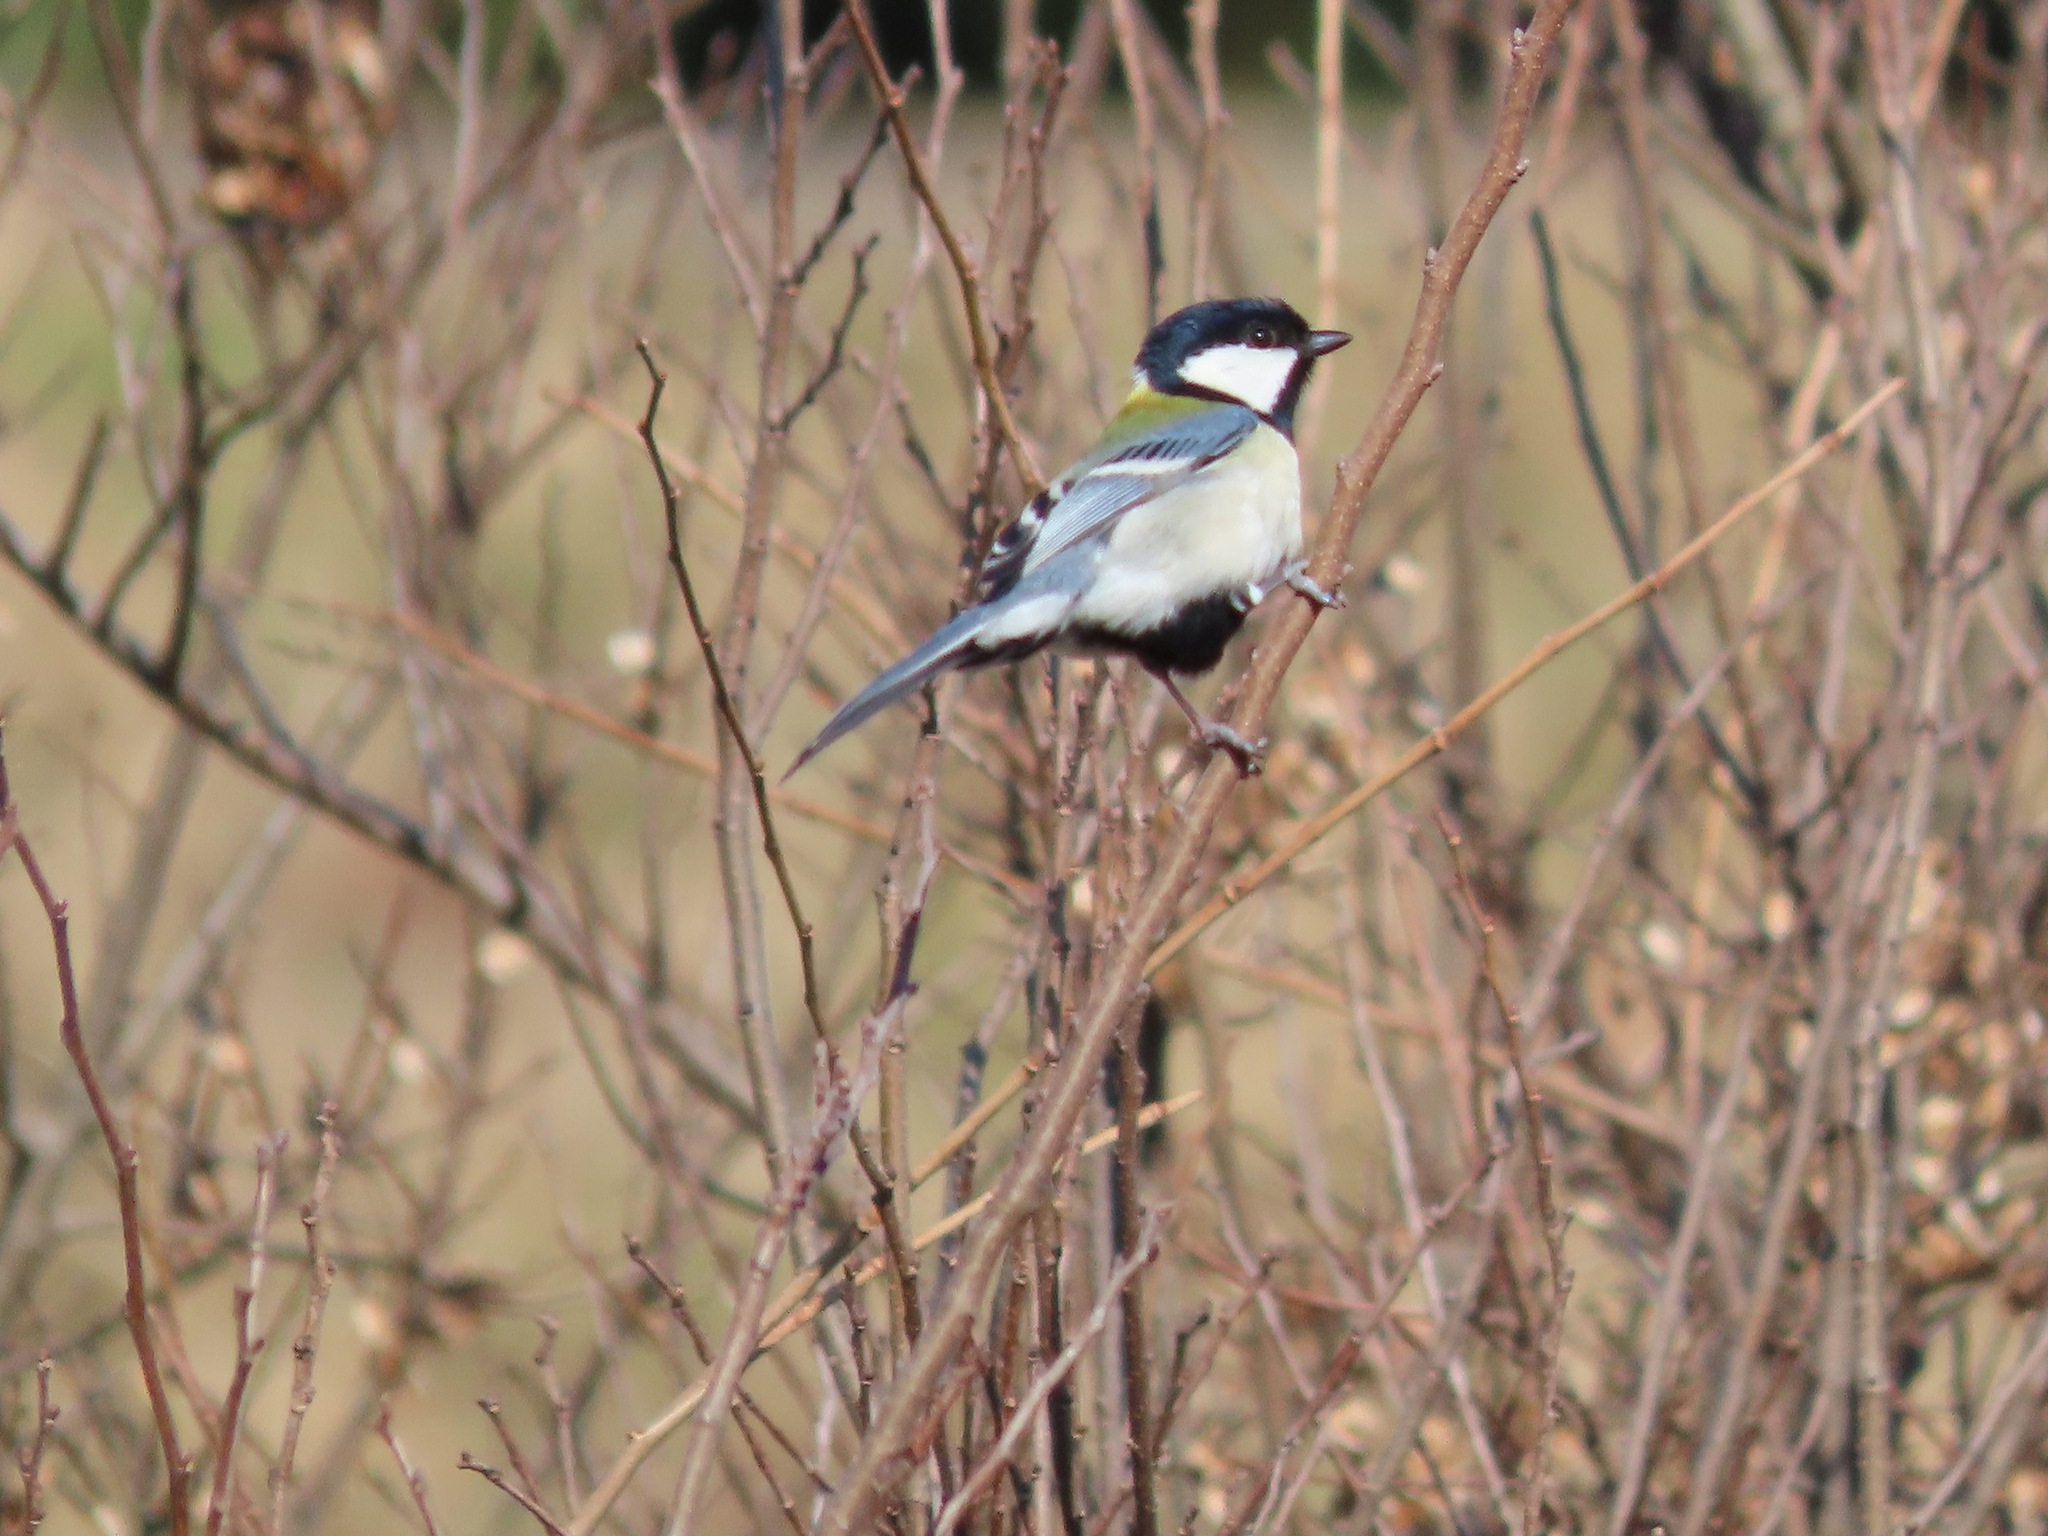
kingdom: Animalia
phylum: Chordata
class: Aves
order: Passeriformes
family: Paridae
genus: Parus
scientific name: Parus minor
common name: Japanese tit
